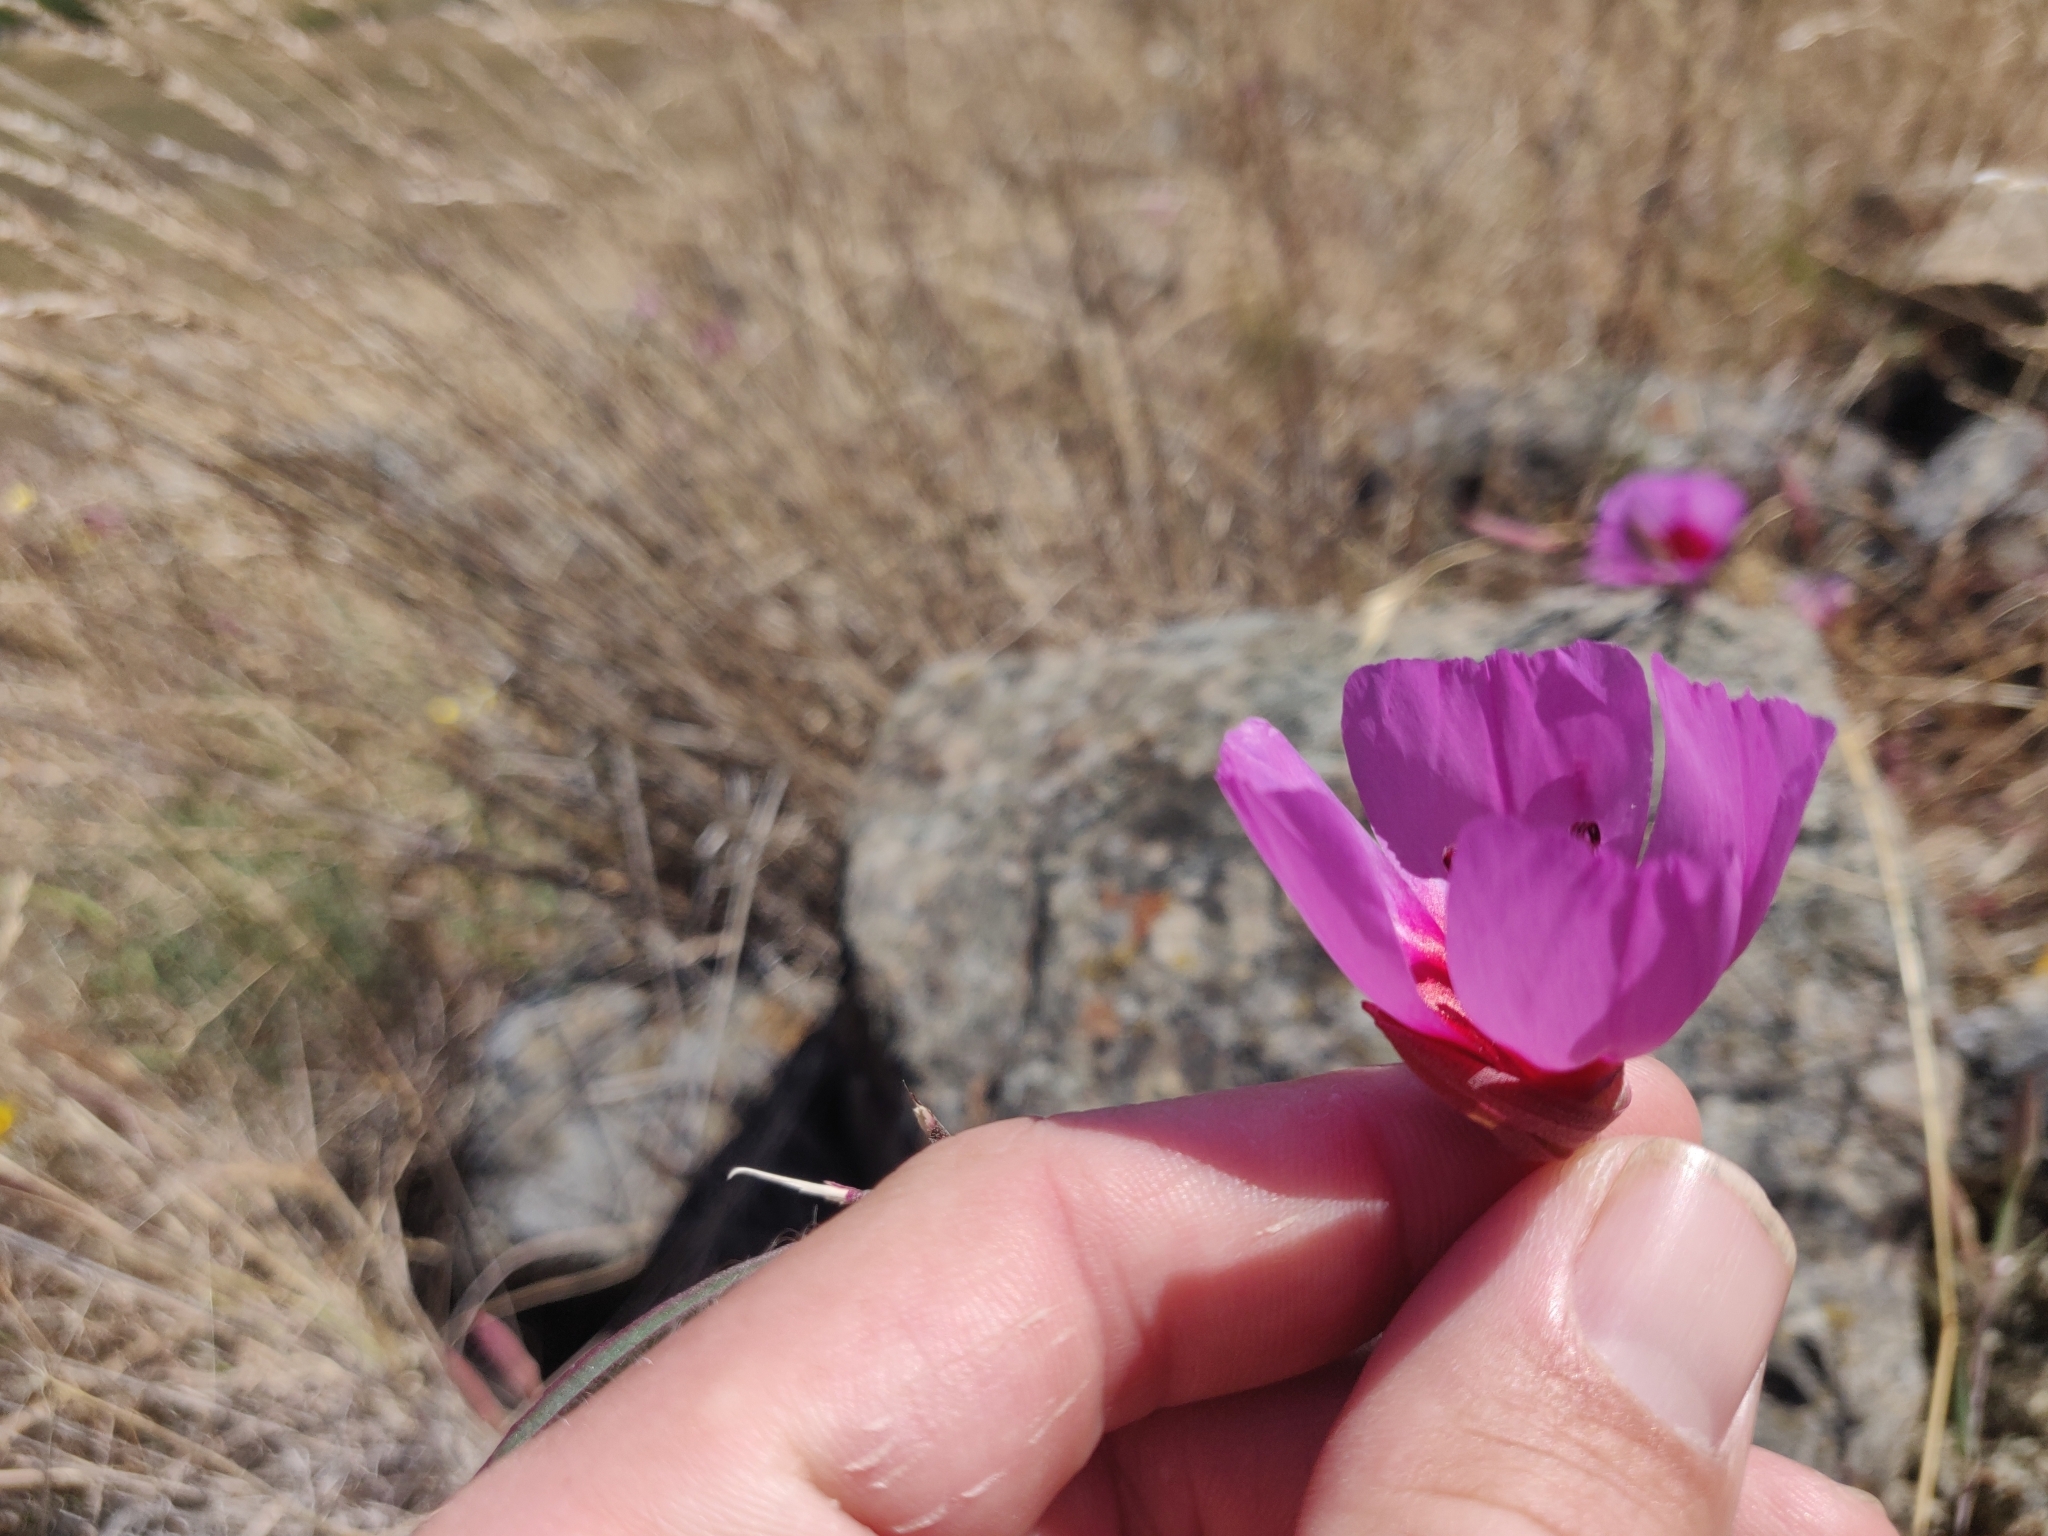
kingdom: Plantae
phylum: Tracheophyta
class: Magnoliopsida
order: Myrtales
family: Onagraceae
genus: Clarkia
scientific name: Clarkia rubicunda
